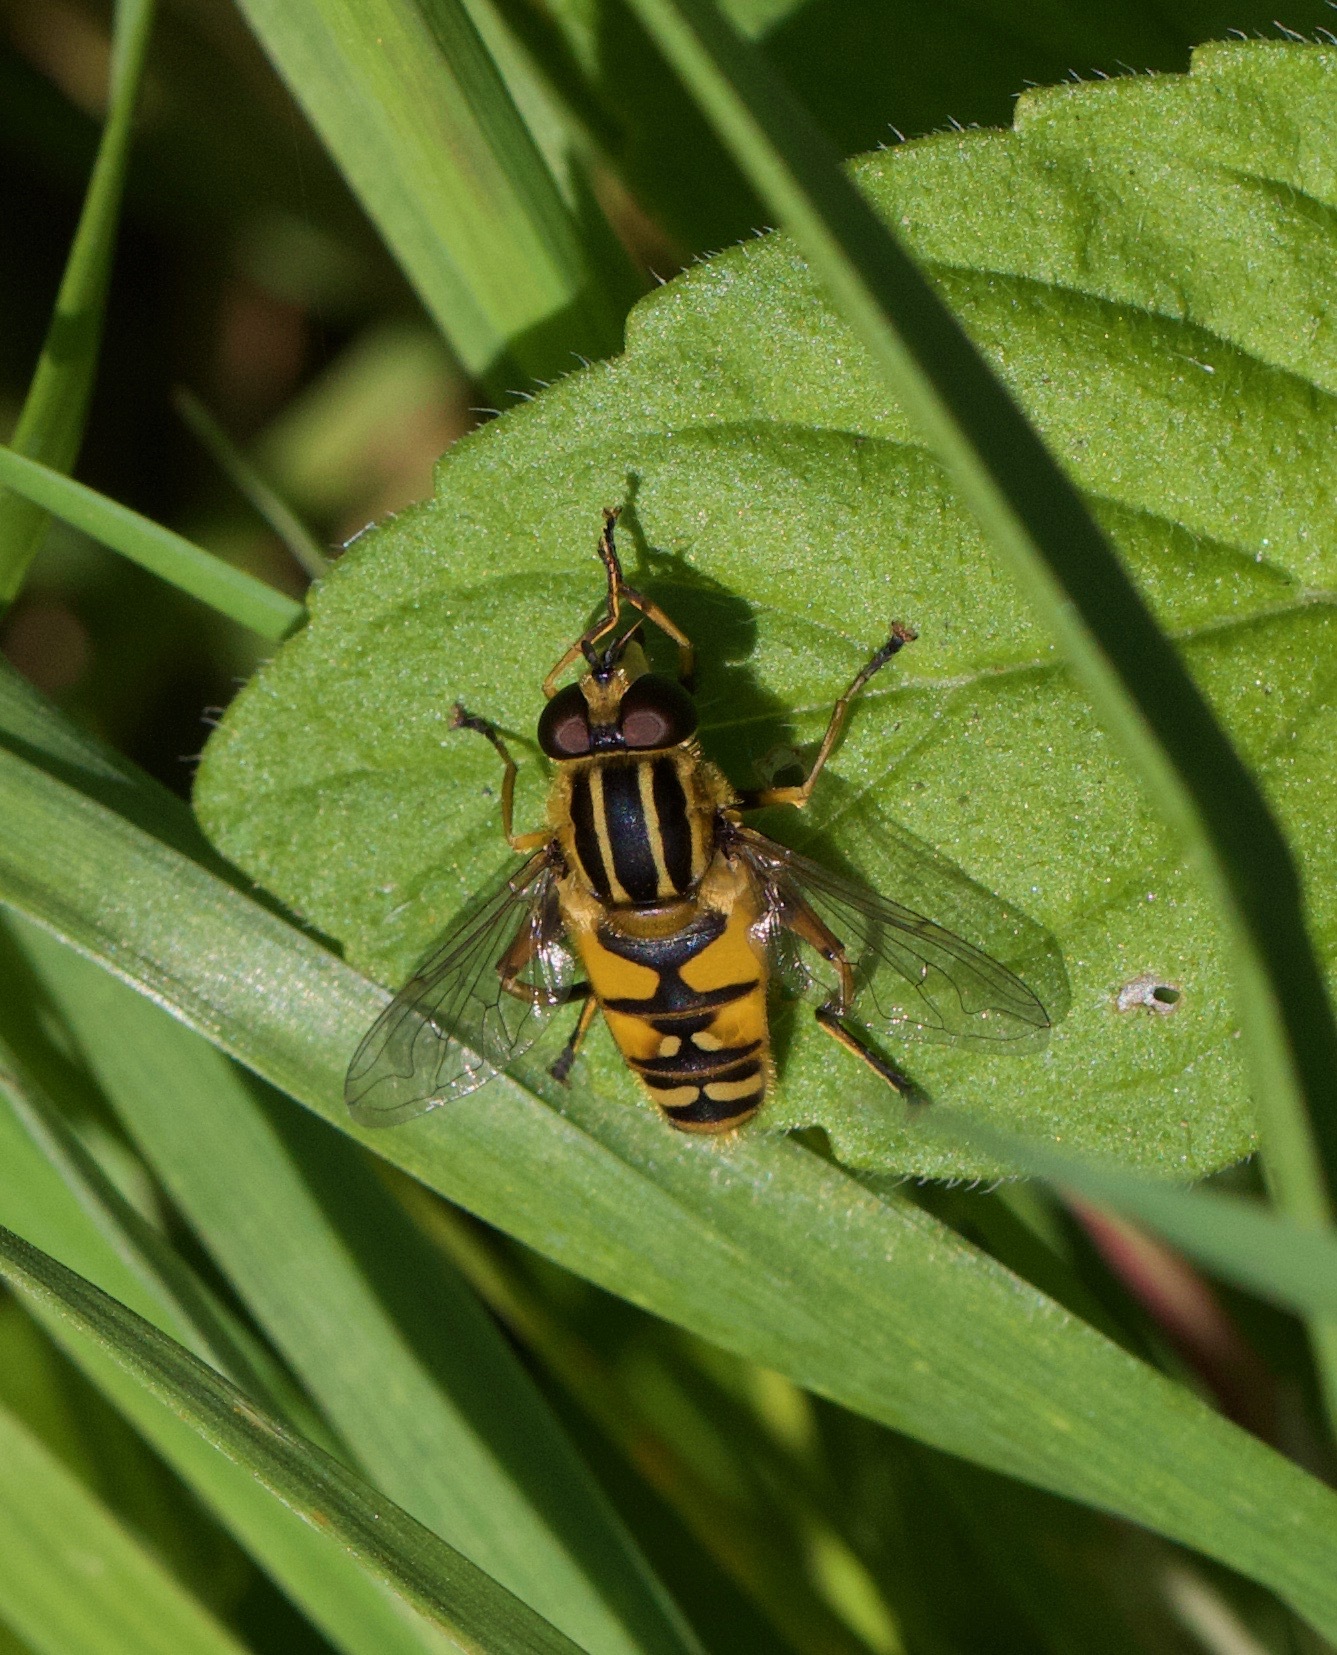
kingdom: Animalia
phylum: Arthropoda
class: Insecta
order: Diptera
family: Syrphidae
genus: Helophilus
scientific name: Helophilus pendulus
